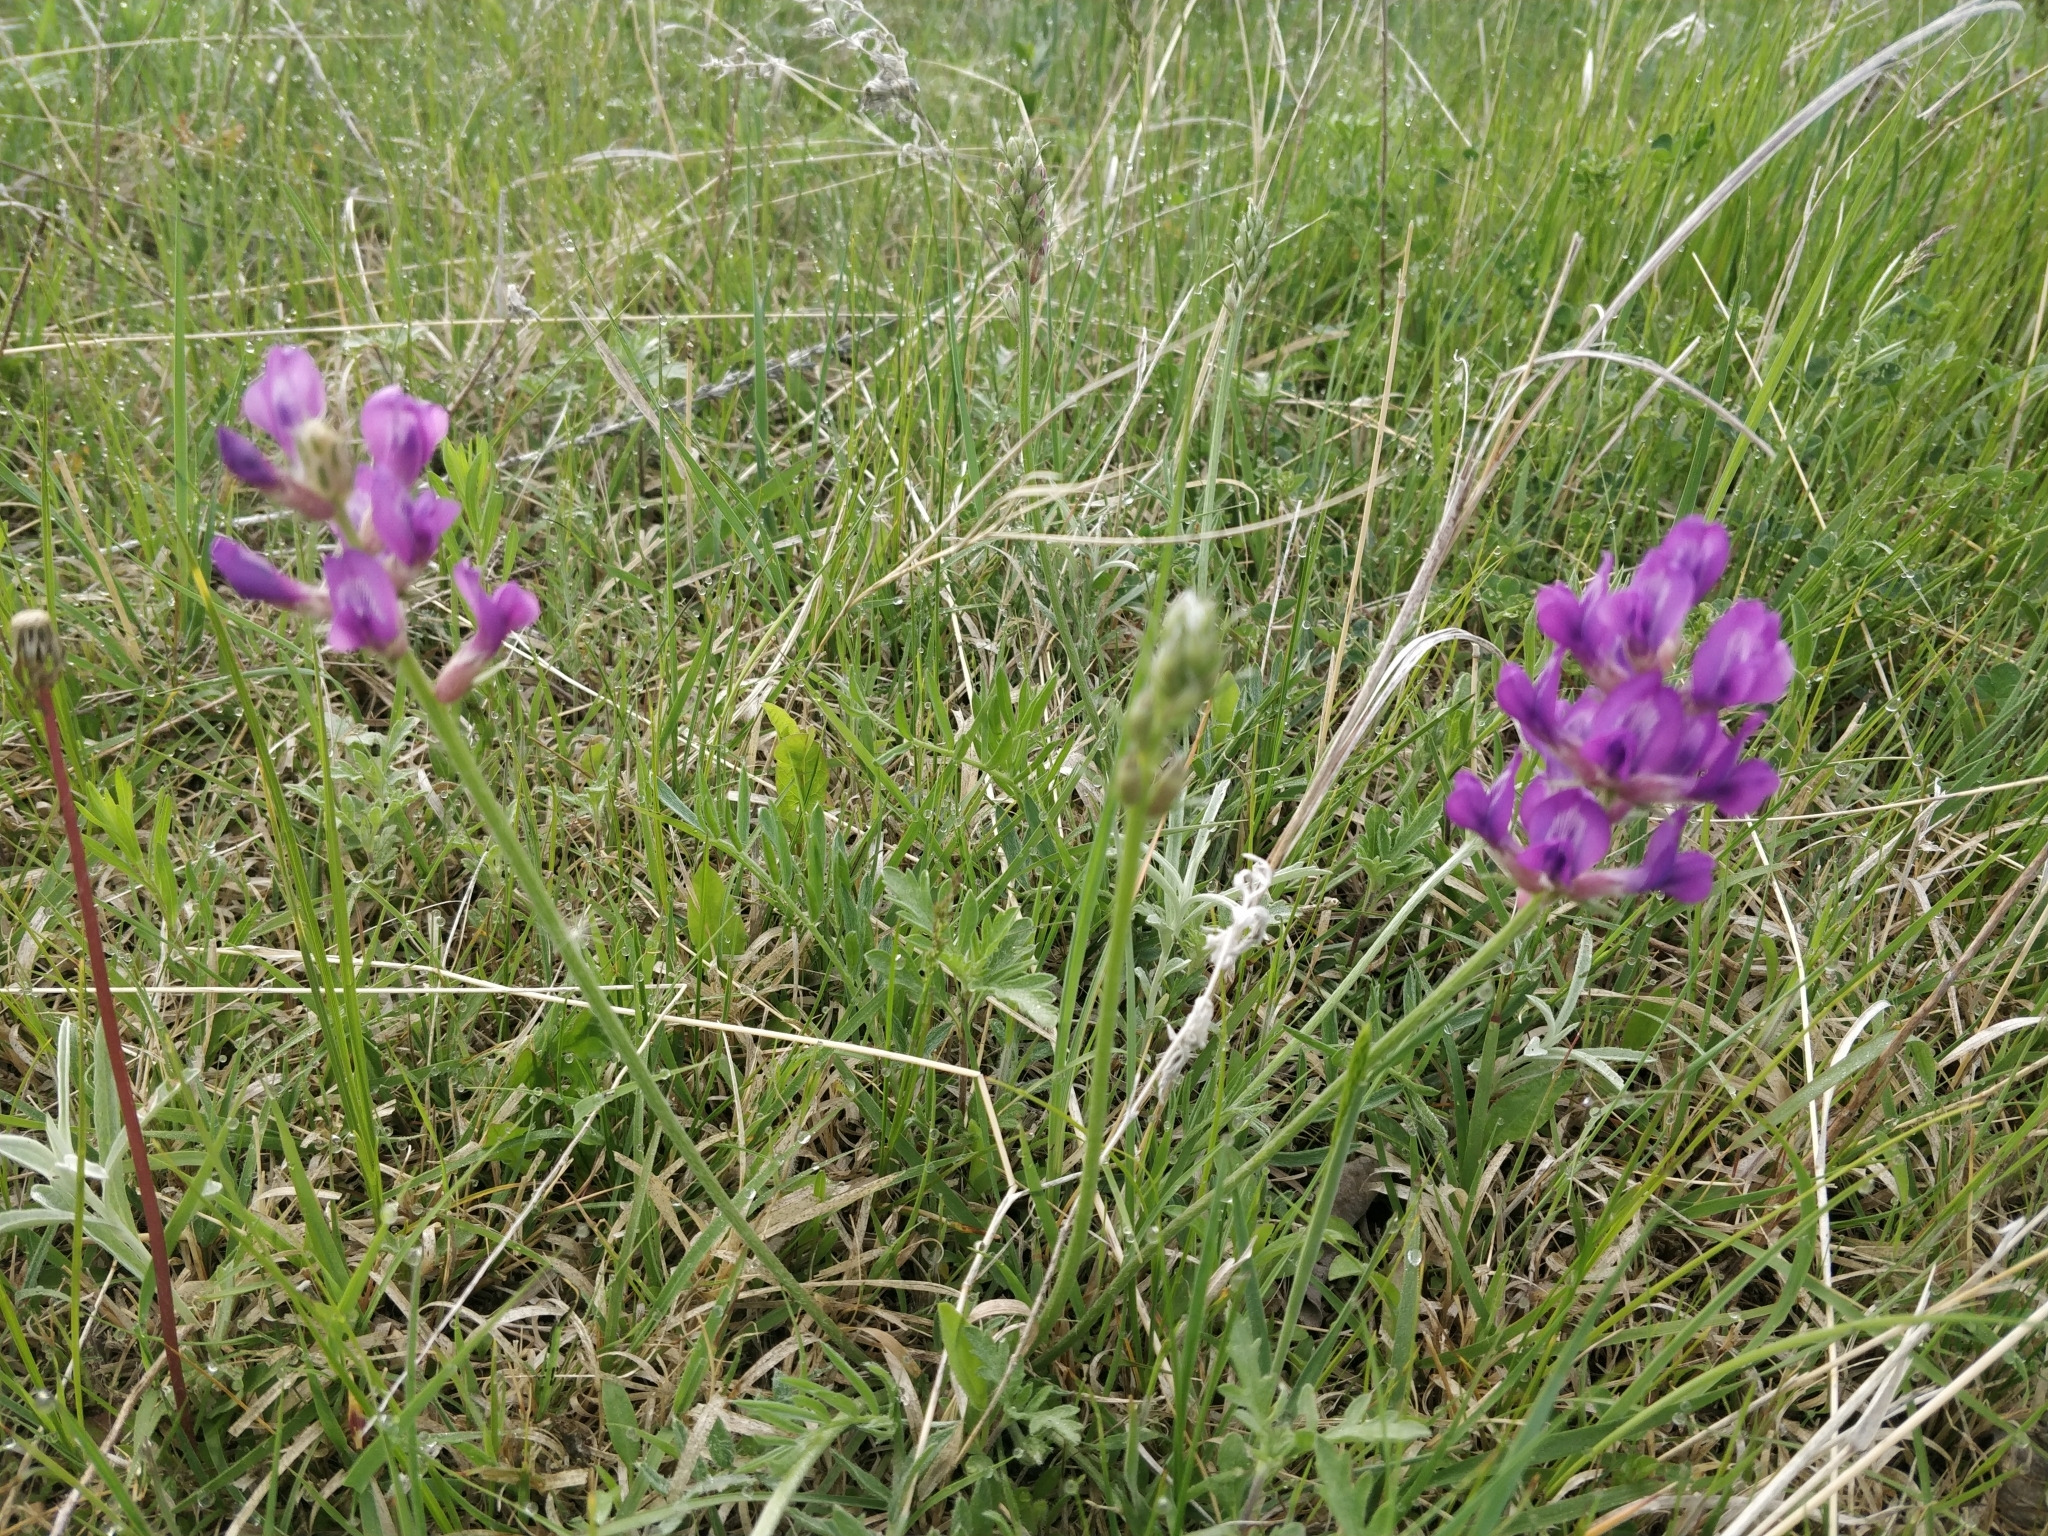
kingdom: Plantae
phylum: Tracheophyta
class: Magnoliopsida
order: Fabales
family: Fabaceae
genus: Oxytropis
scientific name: Oxytropis lambertii
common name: Purple locoweed
